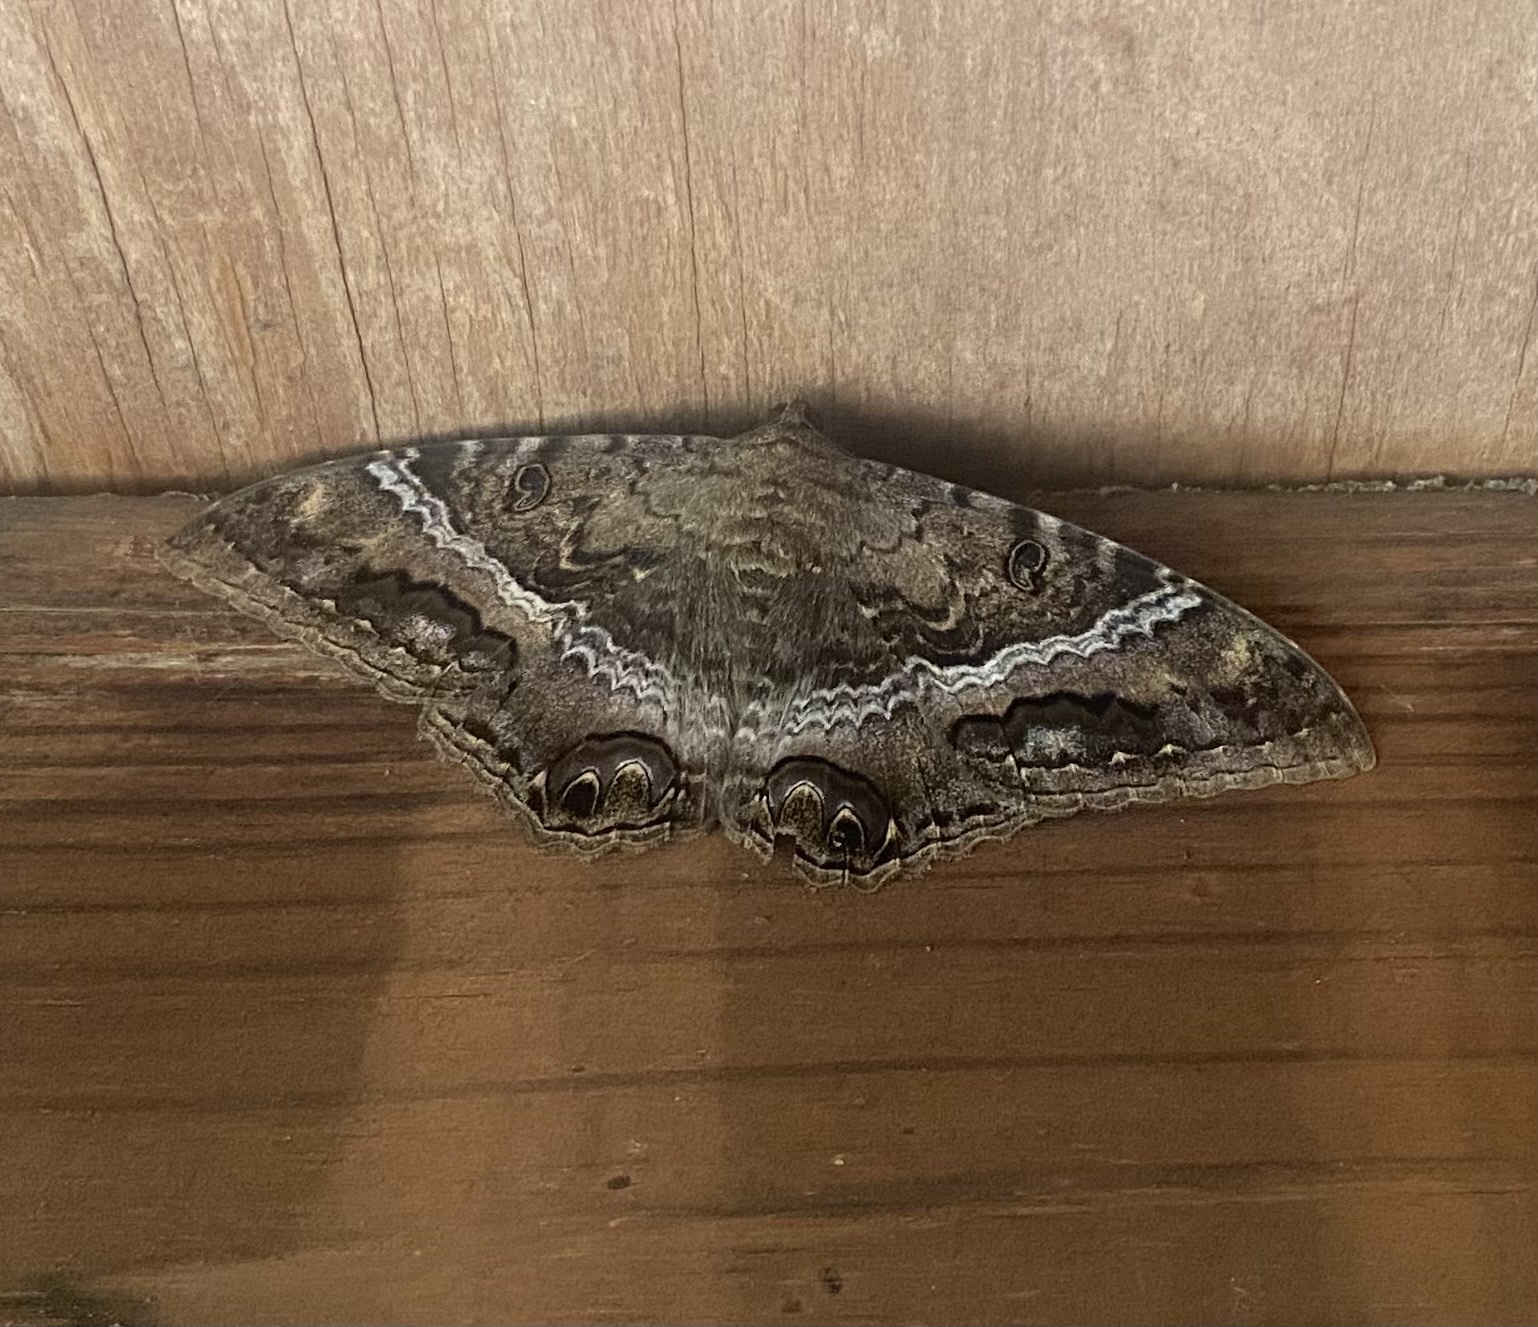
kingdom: Animalia
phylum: Arthropoda
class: Insecta
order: Lepidoptera
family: Erebidae
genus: Ascalapha
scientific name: Ascalapha odorata
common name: Black witch
